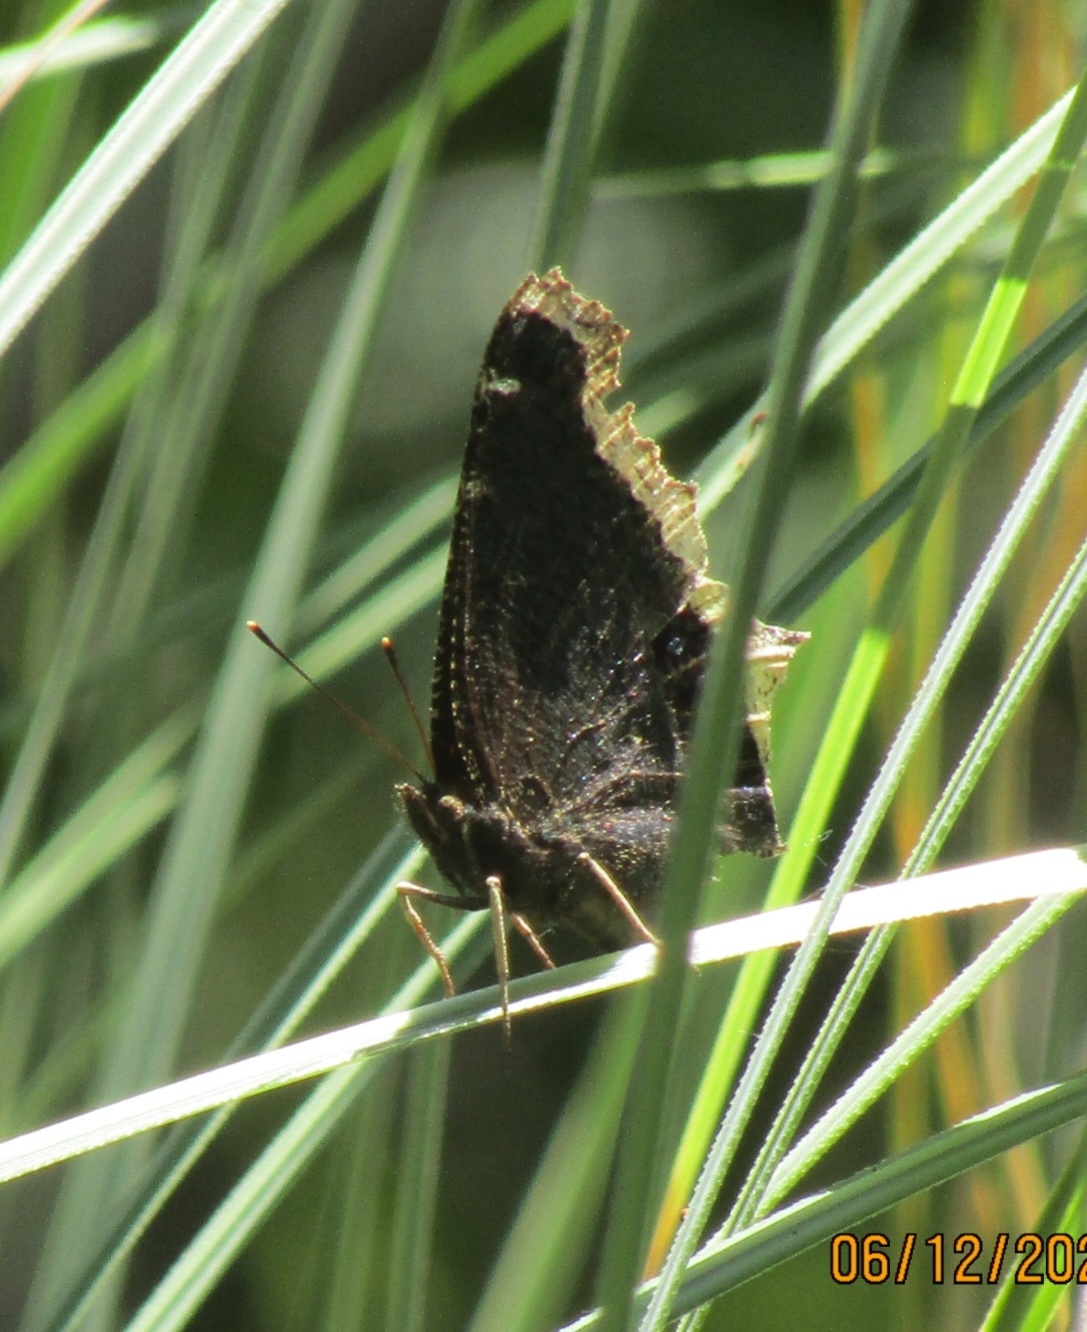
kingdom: Animalia
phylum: Arthropoda
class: Insecta
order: Lepidoptera
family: Nymphalidae
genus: Nymphalis
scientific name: Nymphalis antiopa
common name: Camberwell beauty
